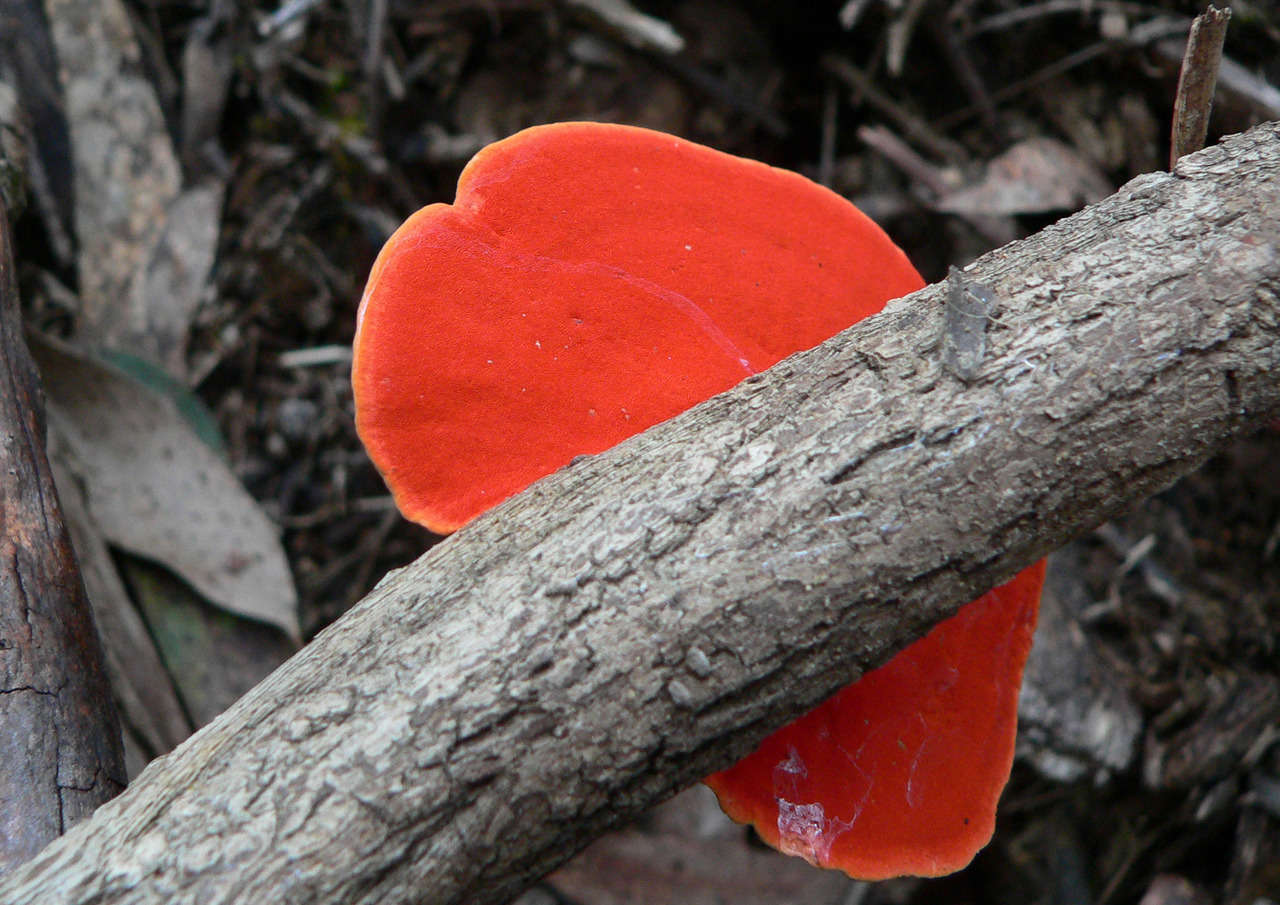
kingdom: Fungi
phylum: Basidiomycota
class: Agaricomycetes
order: Polyporales
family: Polyporaceae
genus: Trametes
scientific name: Trametes coccinea
